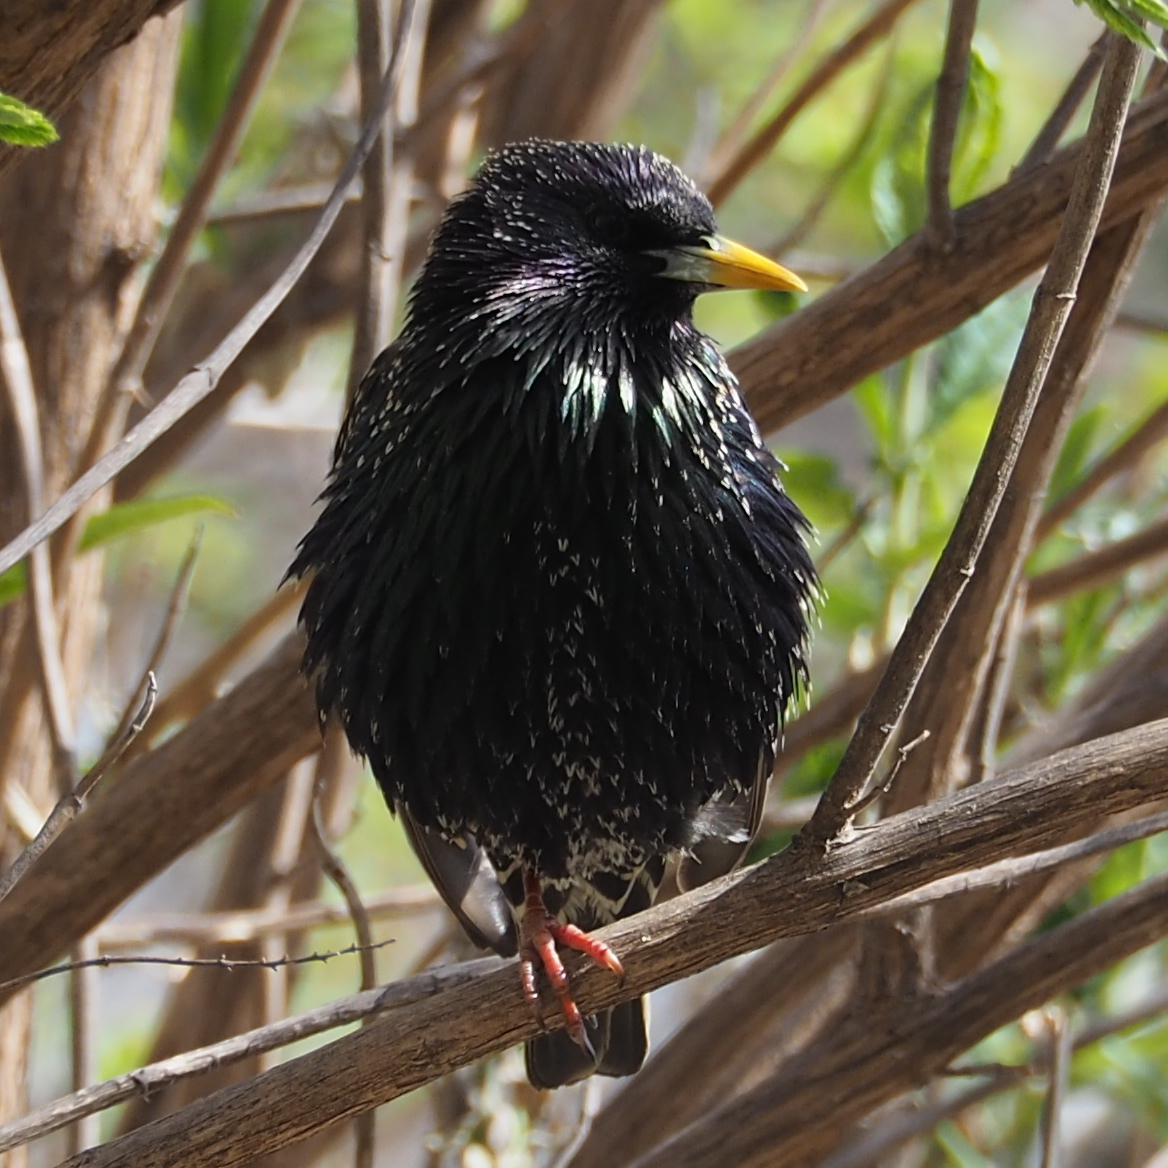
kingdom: Animalia
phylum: Chordata
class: Aves
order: Passeriformes
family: Sturnidae
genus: Sturnus
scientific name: Sturnus vulgaris
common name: Common starling
